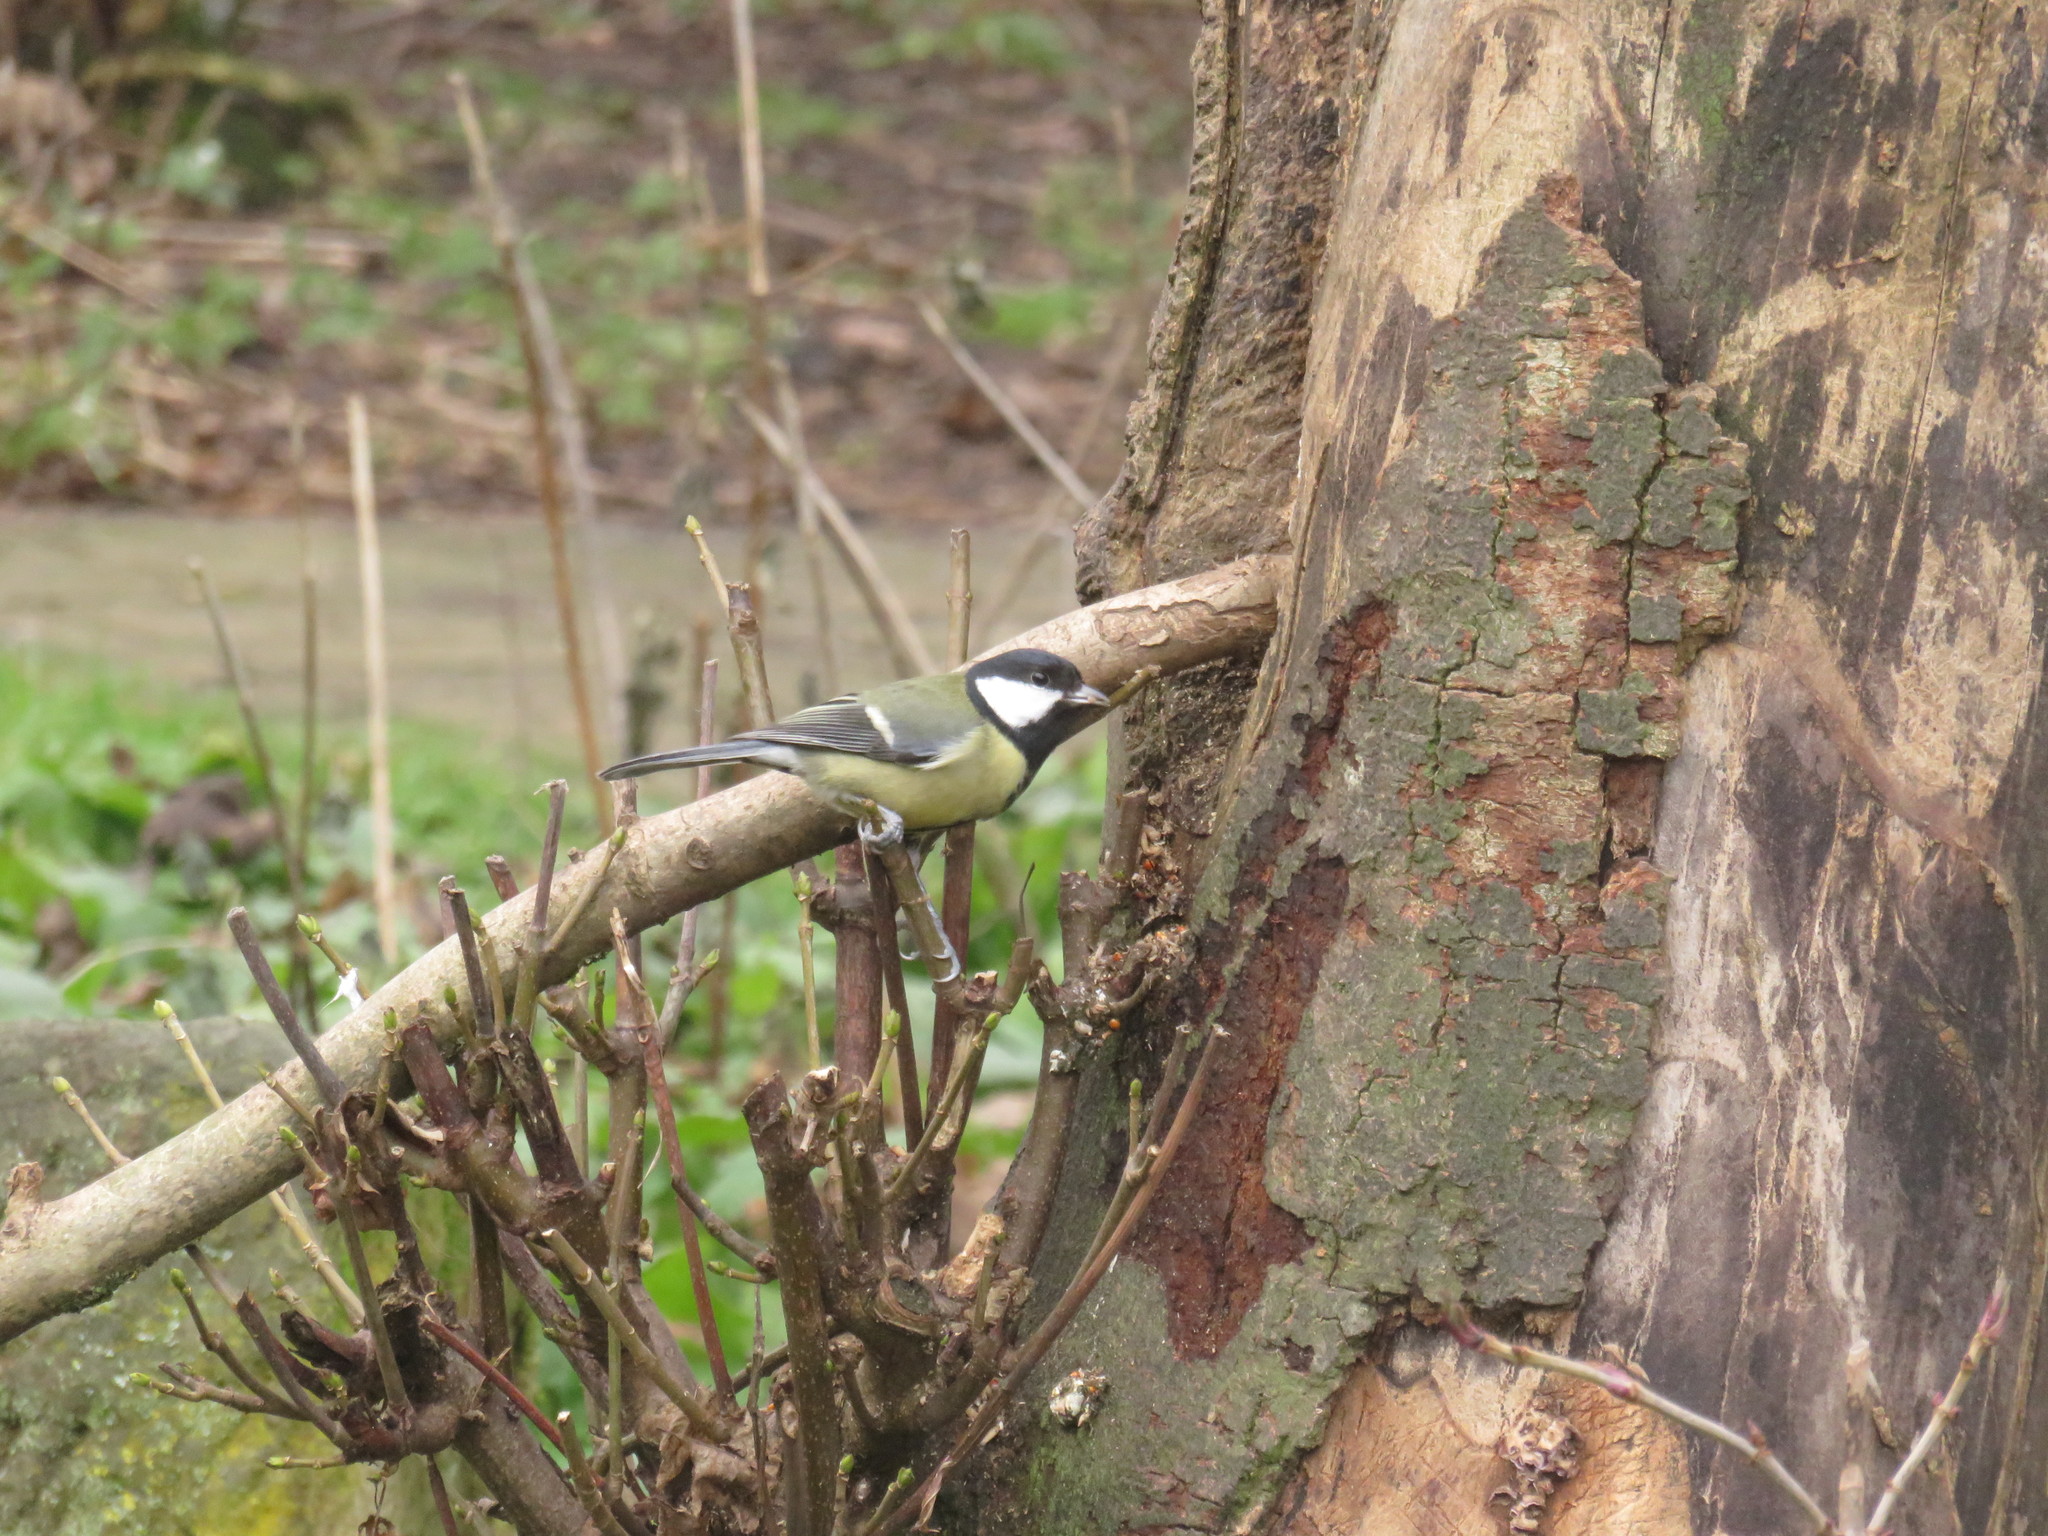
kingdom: Animalia
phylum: Chordata
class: Aves
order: Passeriformes
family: Paridae
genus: Parus
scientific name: Parus major
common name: Great tit
